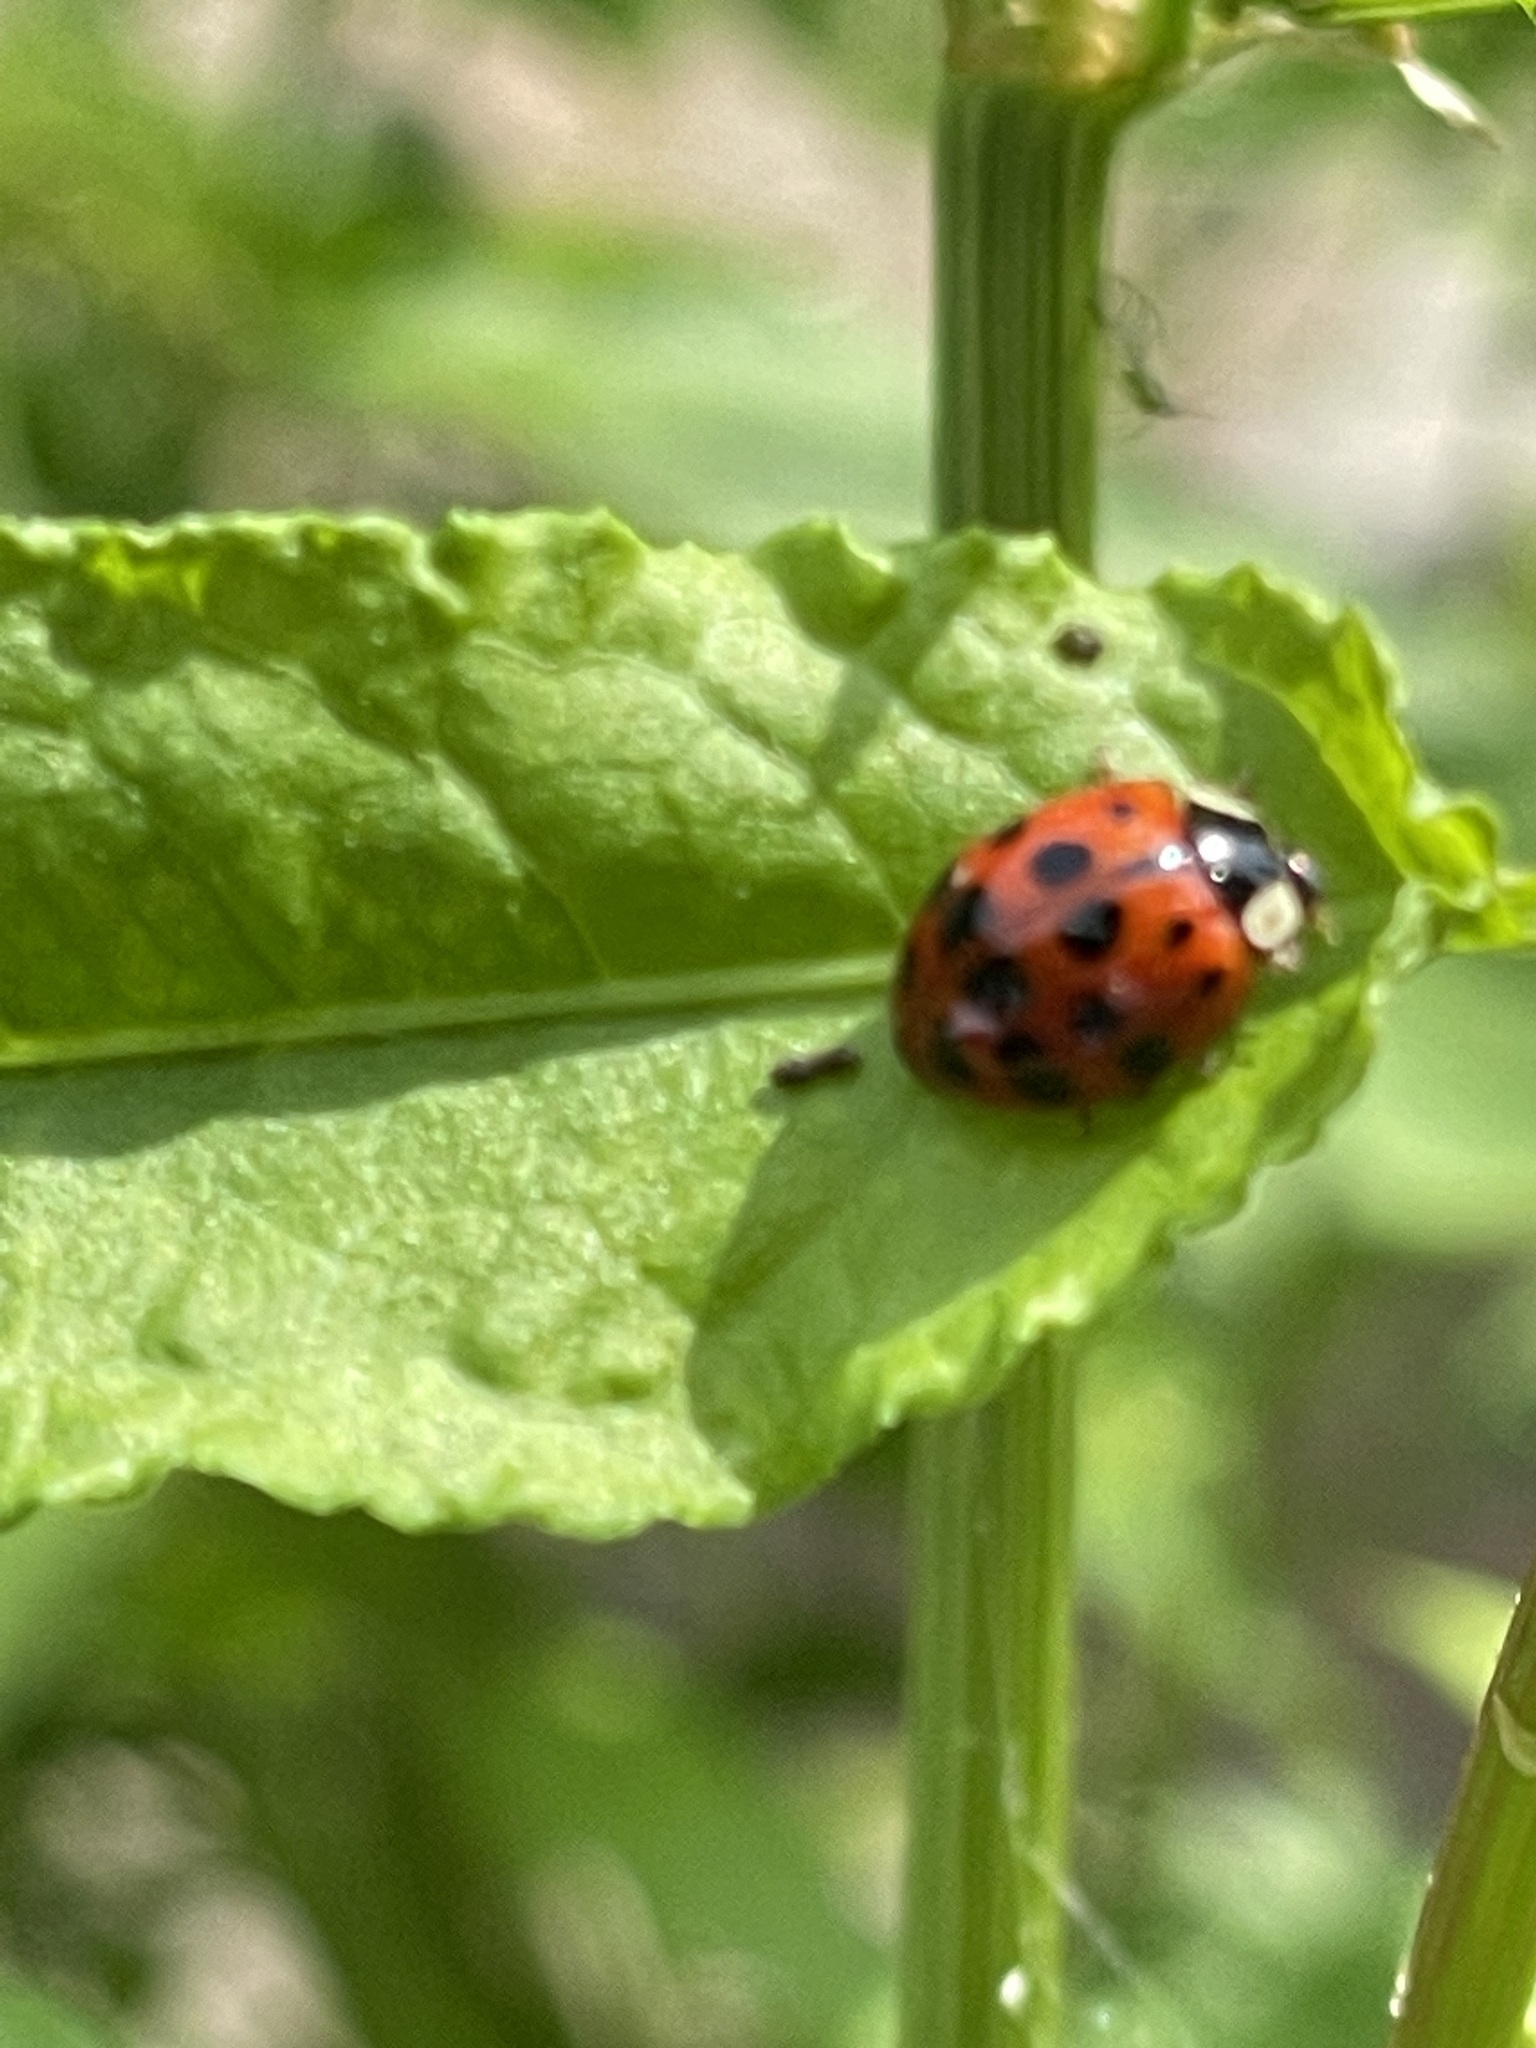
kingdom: Animalia
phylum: Arthropoda
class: Insecta
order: Coleoptera
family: Coccinellidae
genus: Harmonia
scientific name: Harmonia axyridis
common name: Harlequin ladybird
